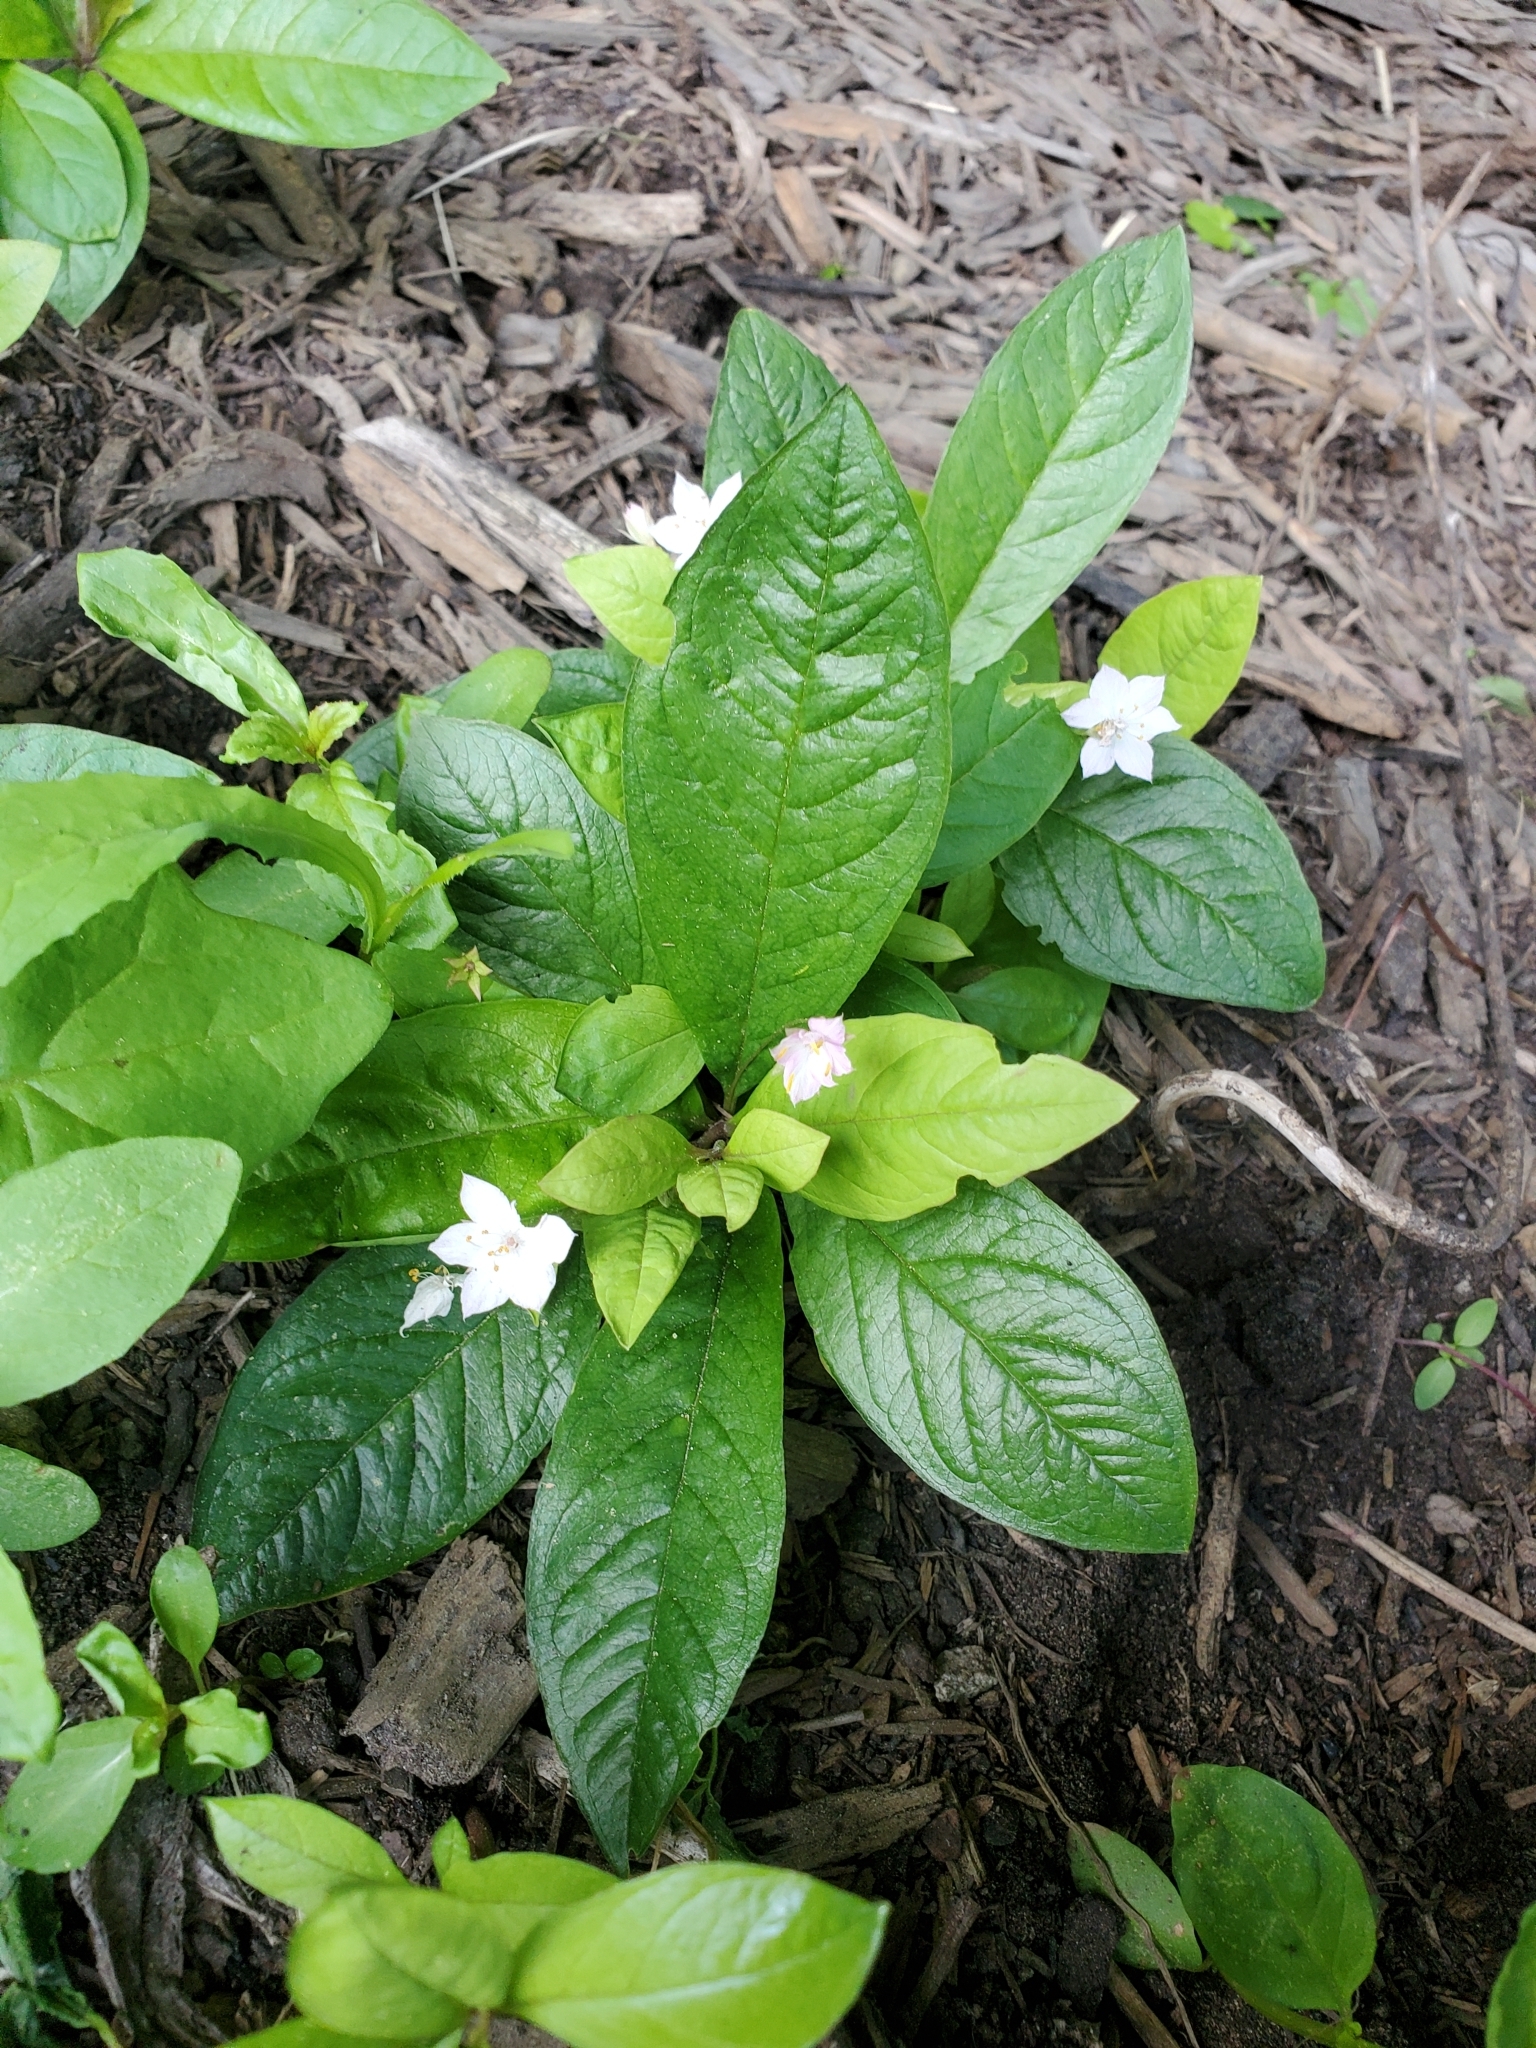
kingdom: Plantae
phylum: Tracheophyta
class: Magnoliopsida
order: Ericales
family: Primulaceae
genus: Lysimachia
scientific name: Lysimachia latifolia
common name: Pacific starflower
